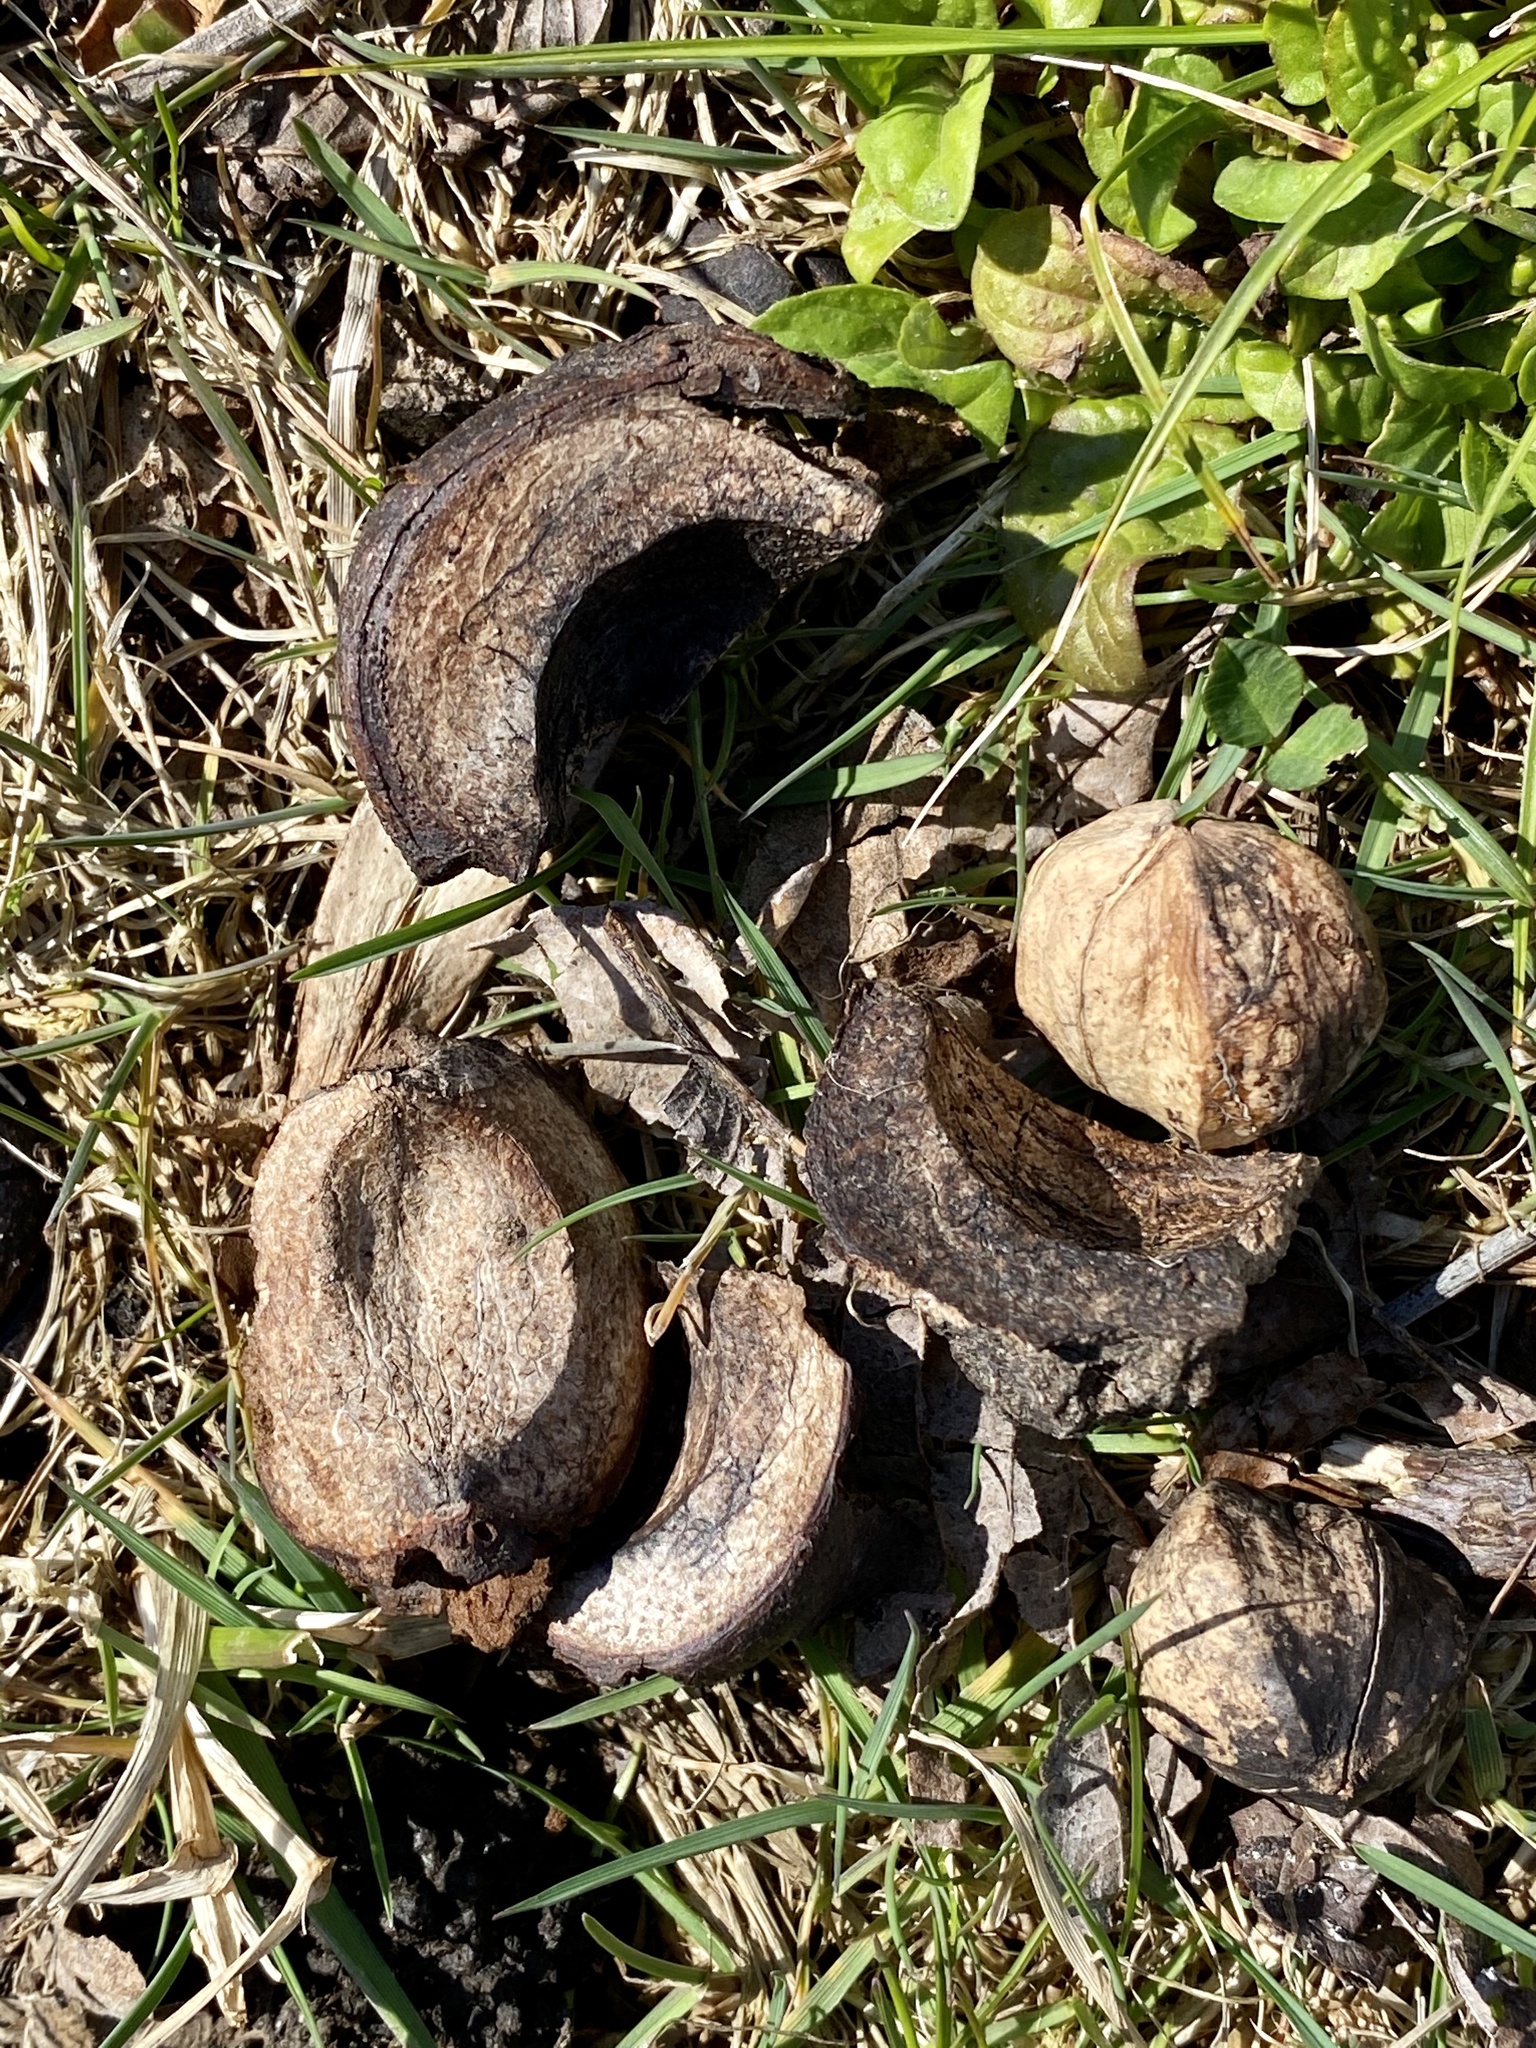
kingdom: Plantae
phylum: Tracheophyta
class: Magnoliopsida
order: Fagales
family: Juglandaceae
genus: Carya
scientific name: Carya ovata
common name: Shagbark hickory
